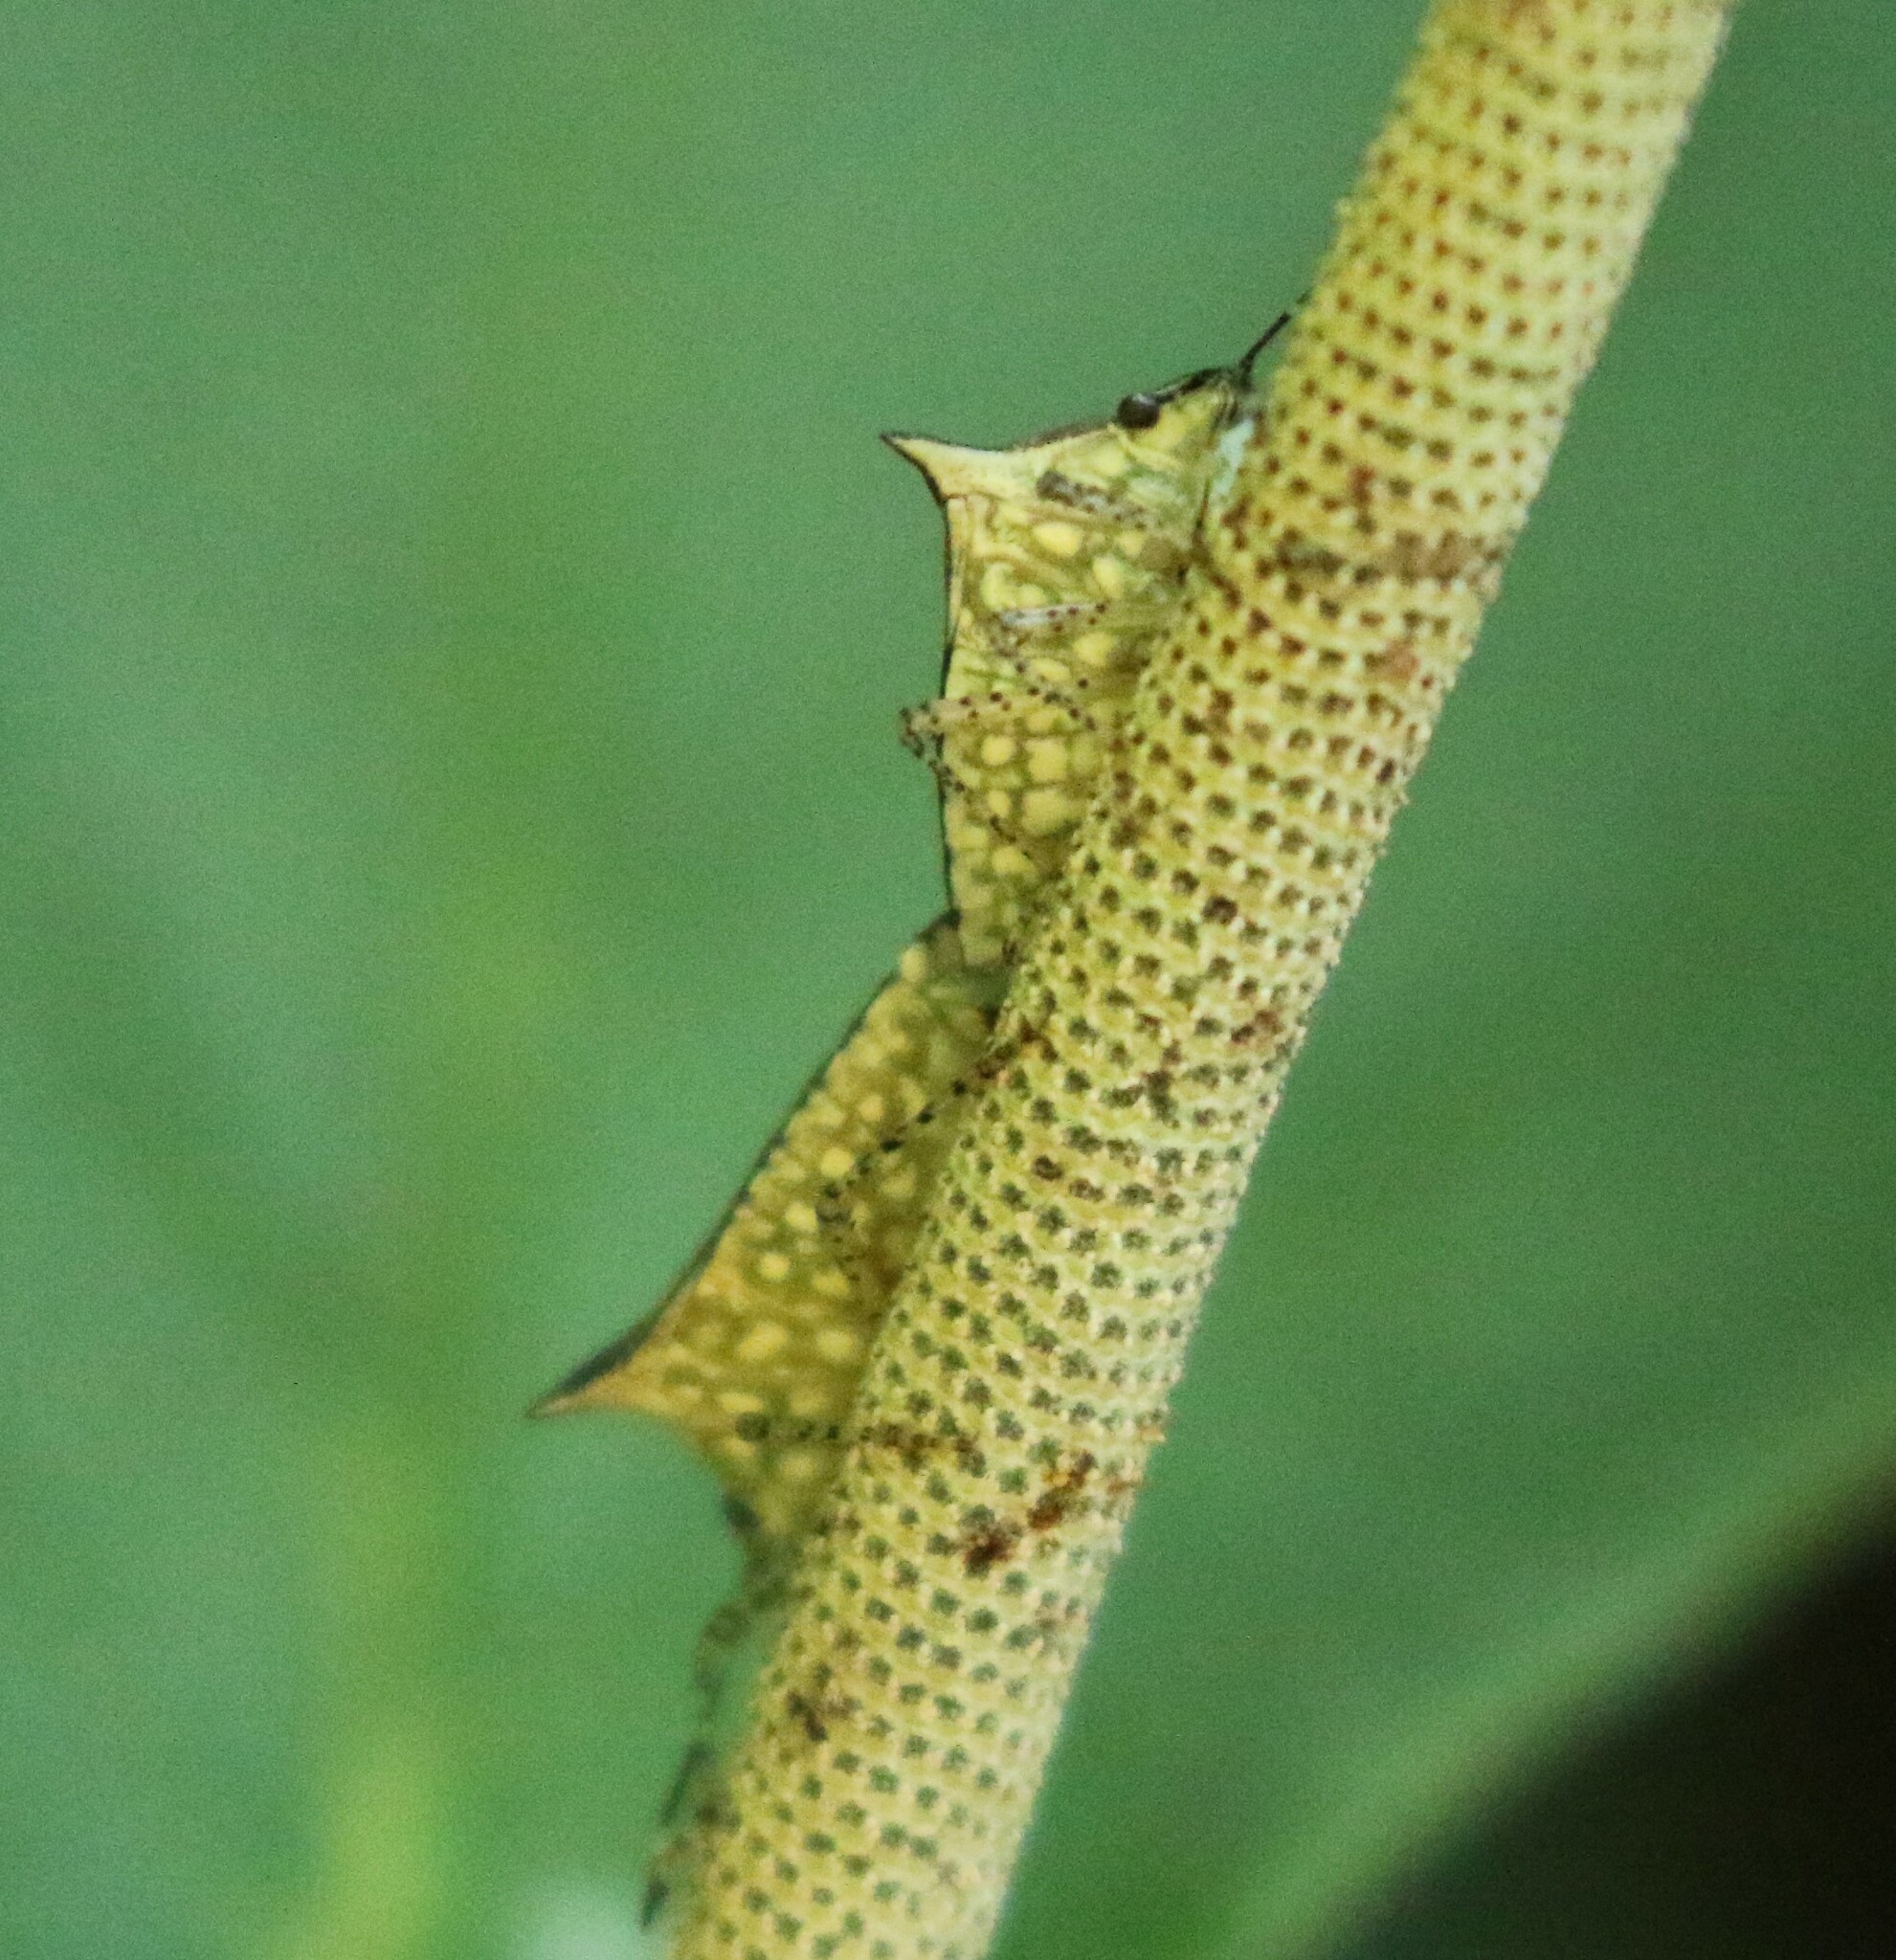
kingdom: Animalia
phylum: Arthropoda
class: Insecta
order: Hemiptera
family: Pentatomidae
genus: Sibaria
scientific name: Sibaria armata
